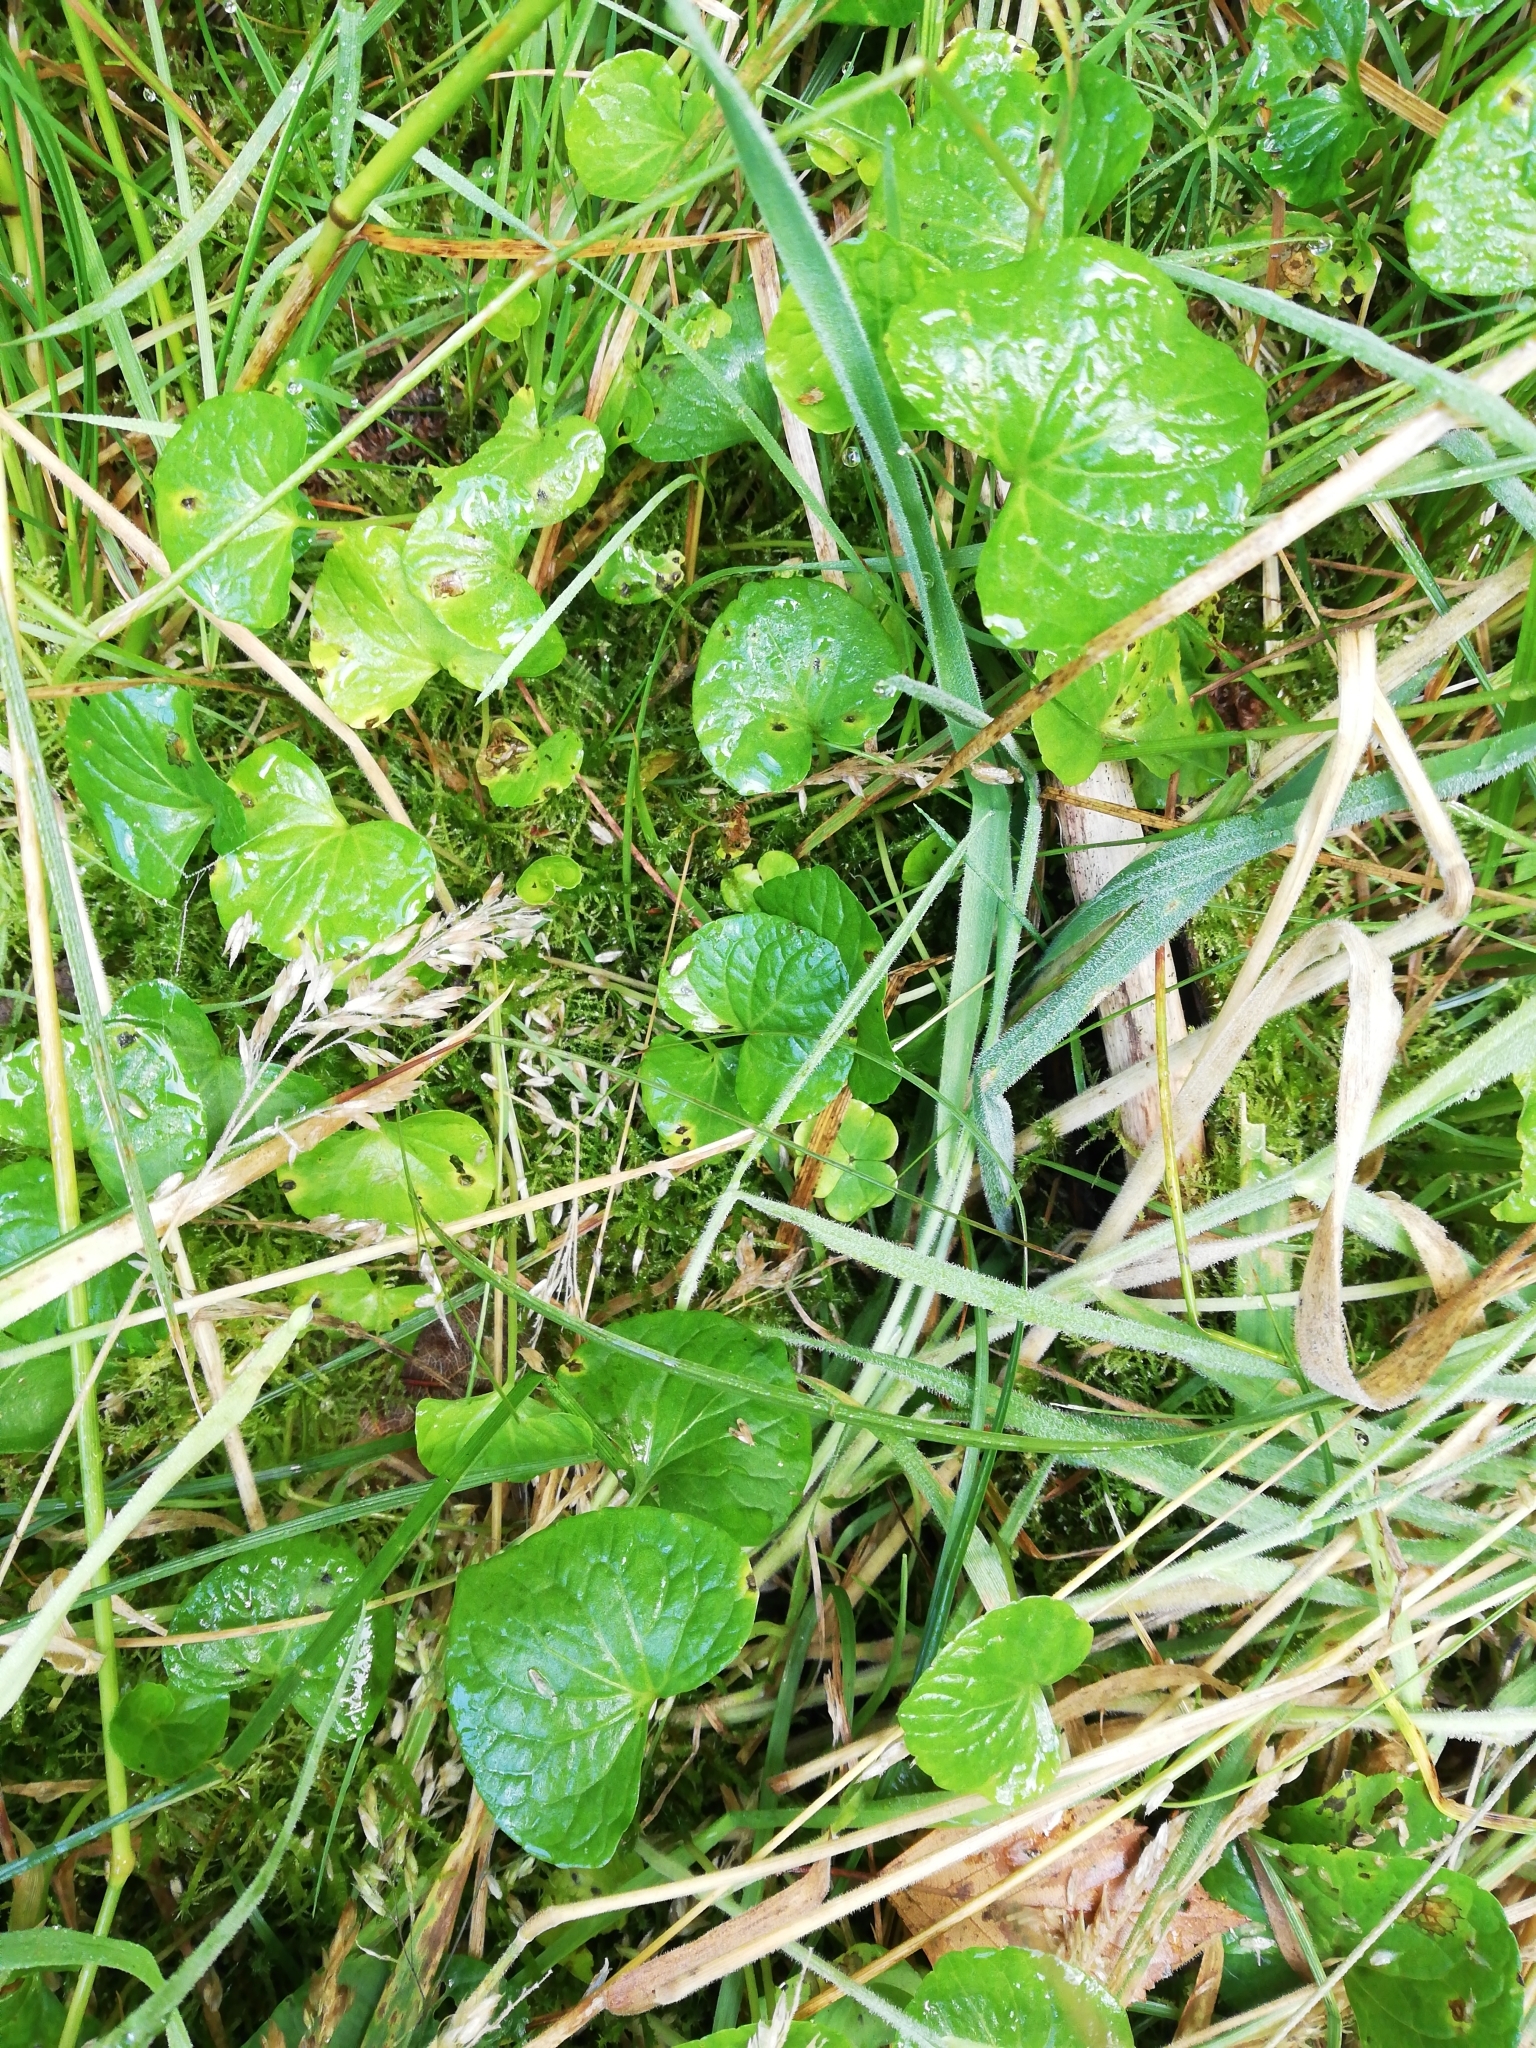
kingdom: Plantae
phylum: Tracheophyta
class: Magnoliopsida
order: Malpighiales
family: Violaceae
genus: Viola
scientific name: Viola palustris
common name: Marsh violet
